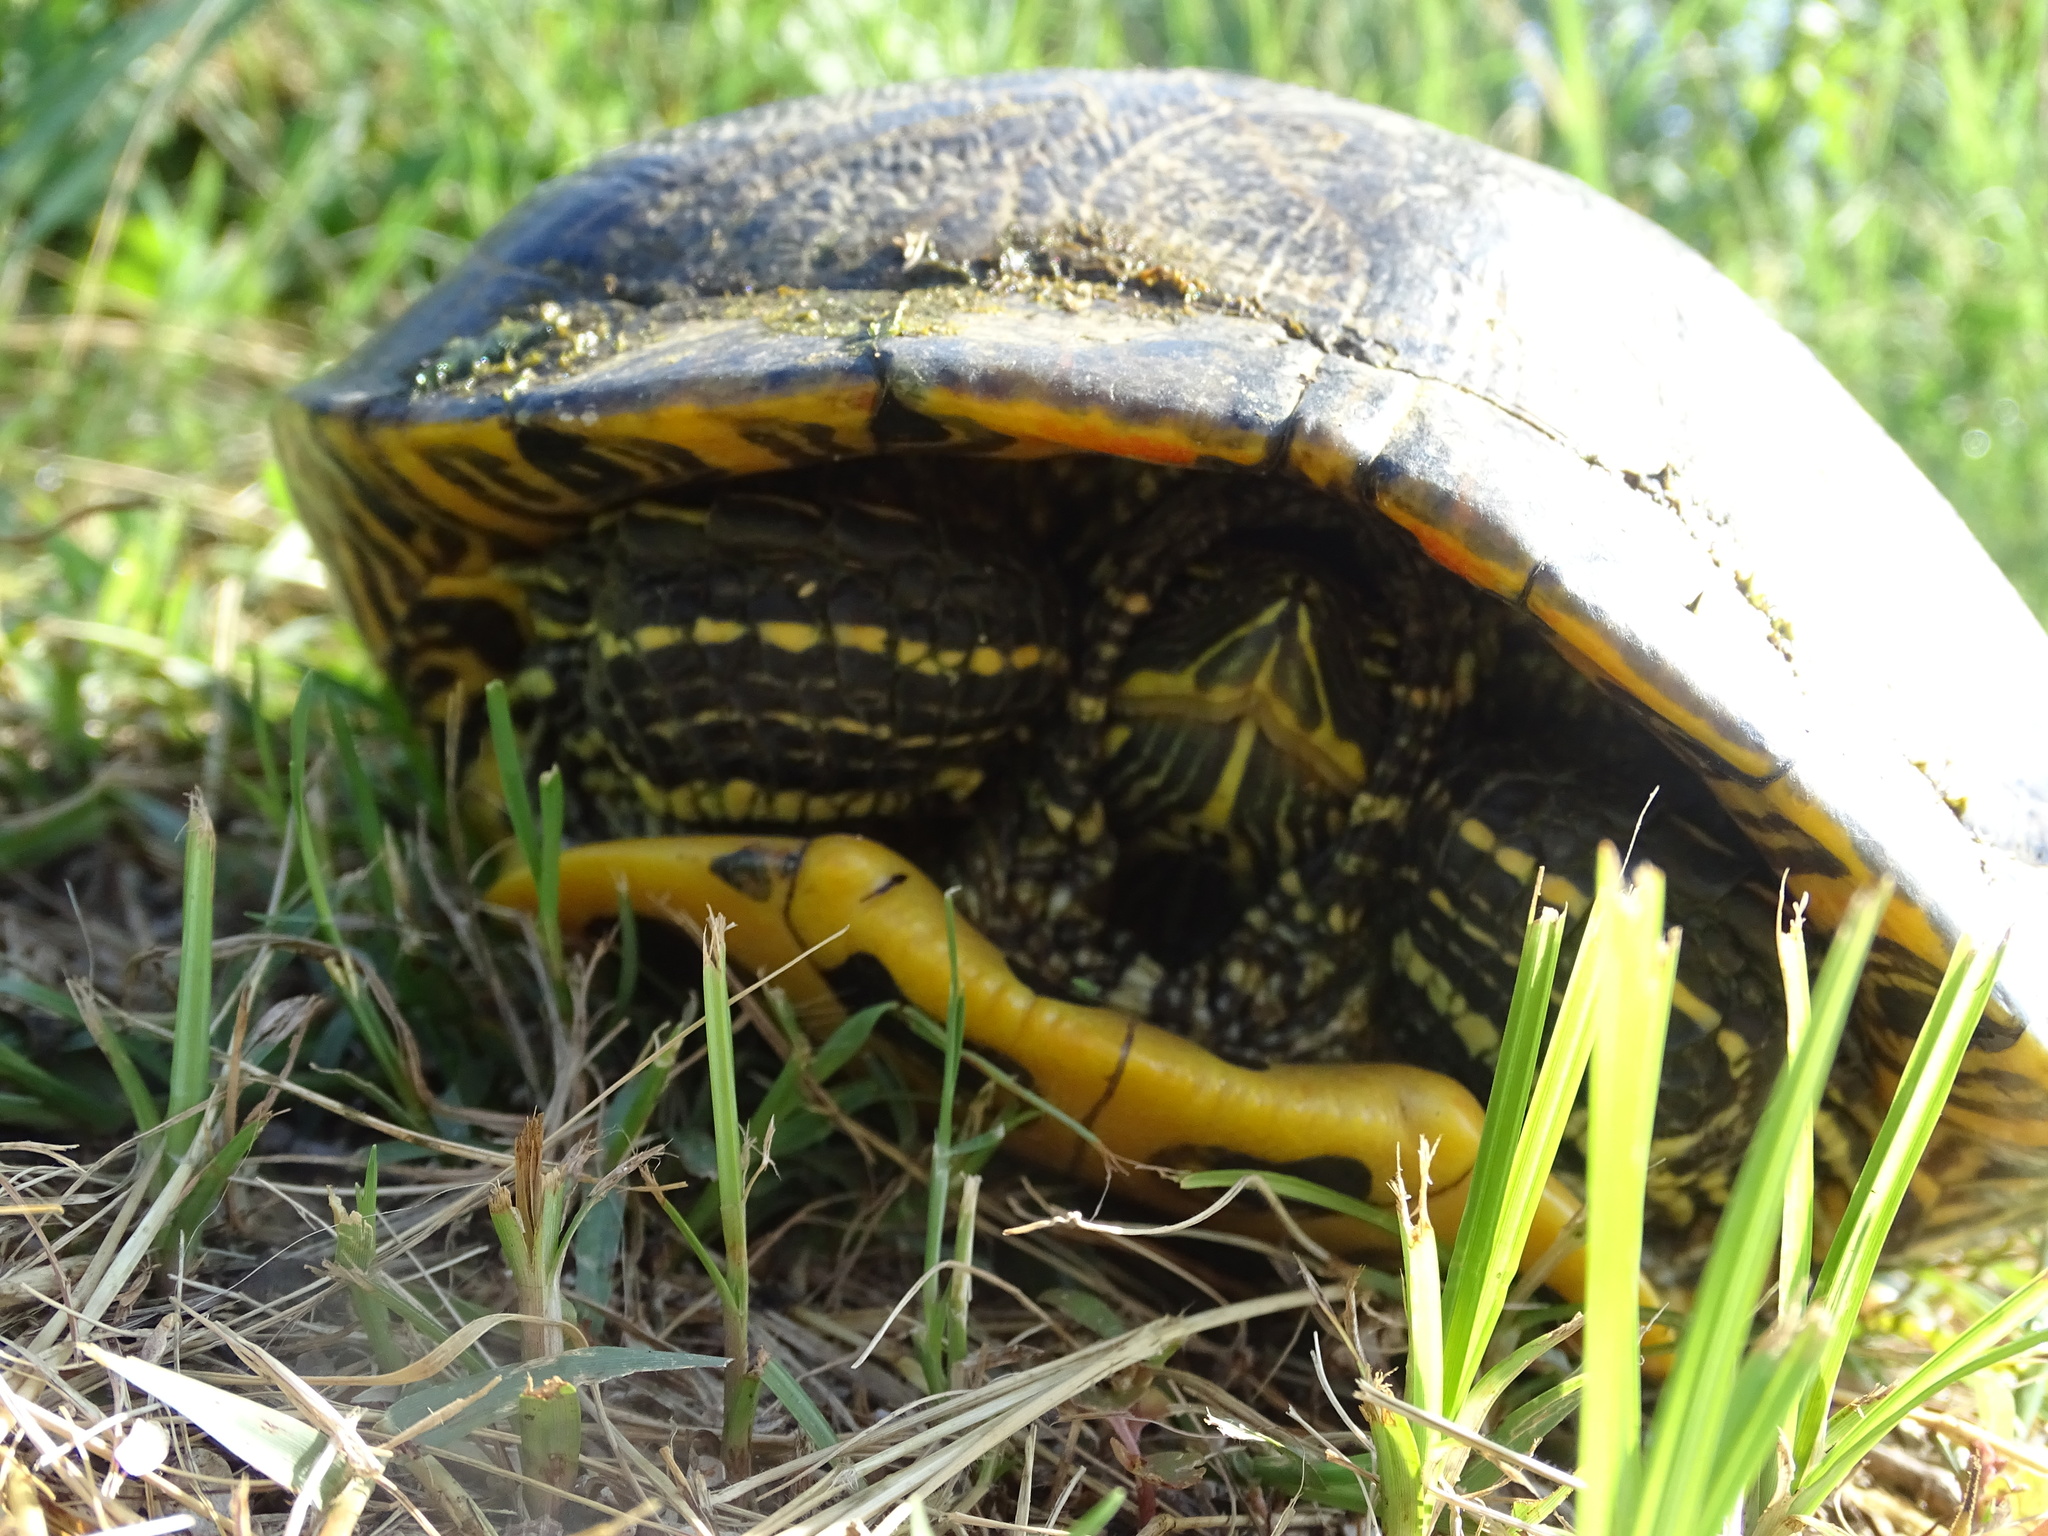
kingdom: Animalia
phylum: Chordata
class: Testudines
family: Emydidae
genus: Trachemys
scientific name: Trachemys scripta
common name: Slider
